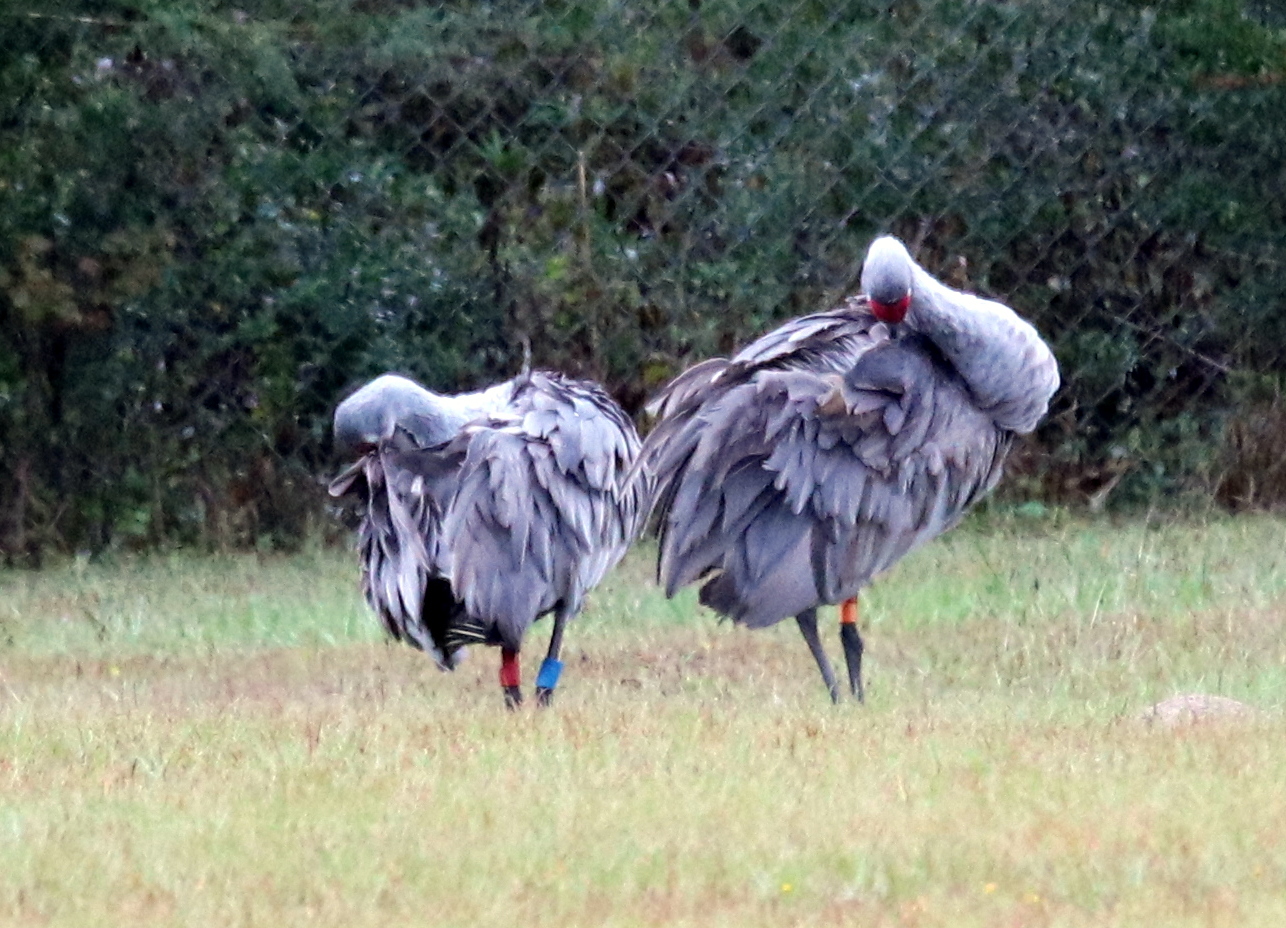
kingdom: Animalia
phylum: Chordata
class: Aves
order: Gruiformes
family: Gruidae
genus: Grus
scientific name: Grus canadensis
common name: Sandhill crane
